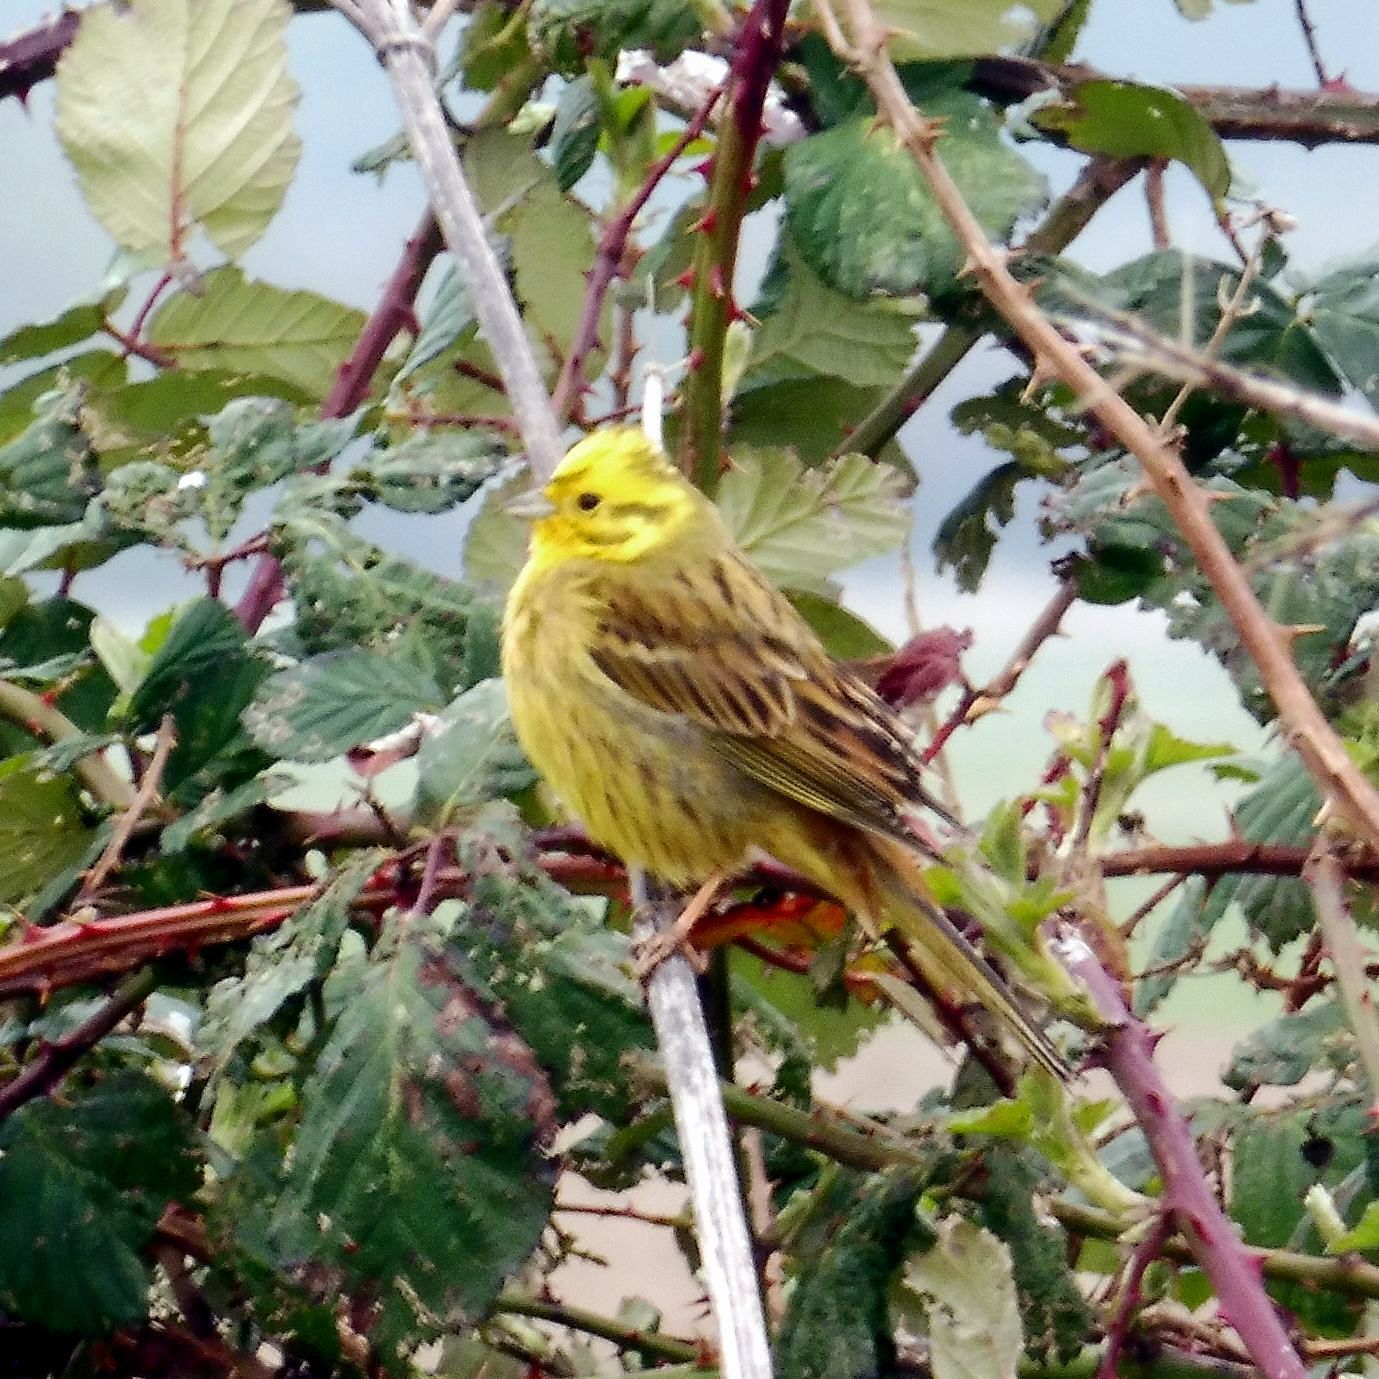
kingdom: Animalia
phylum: Chordata
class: Aves
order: Passeriformes
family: Emberizidae
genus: Emberiza
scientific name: Emberiza citrinella
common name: Yellowhammer
